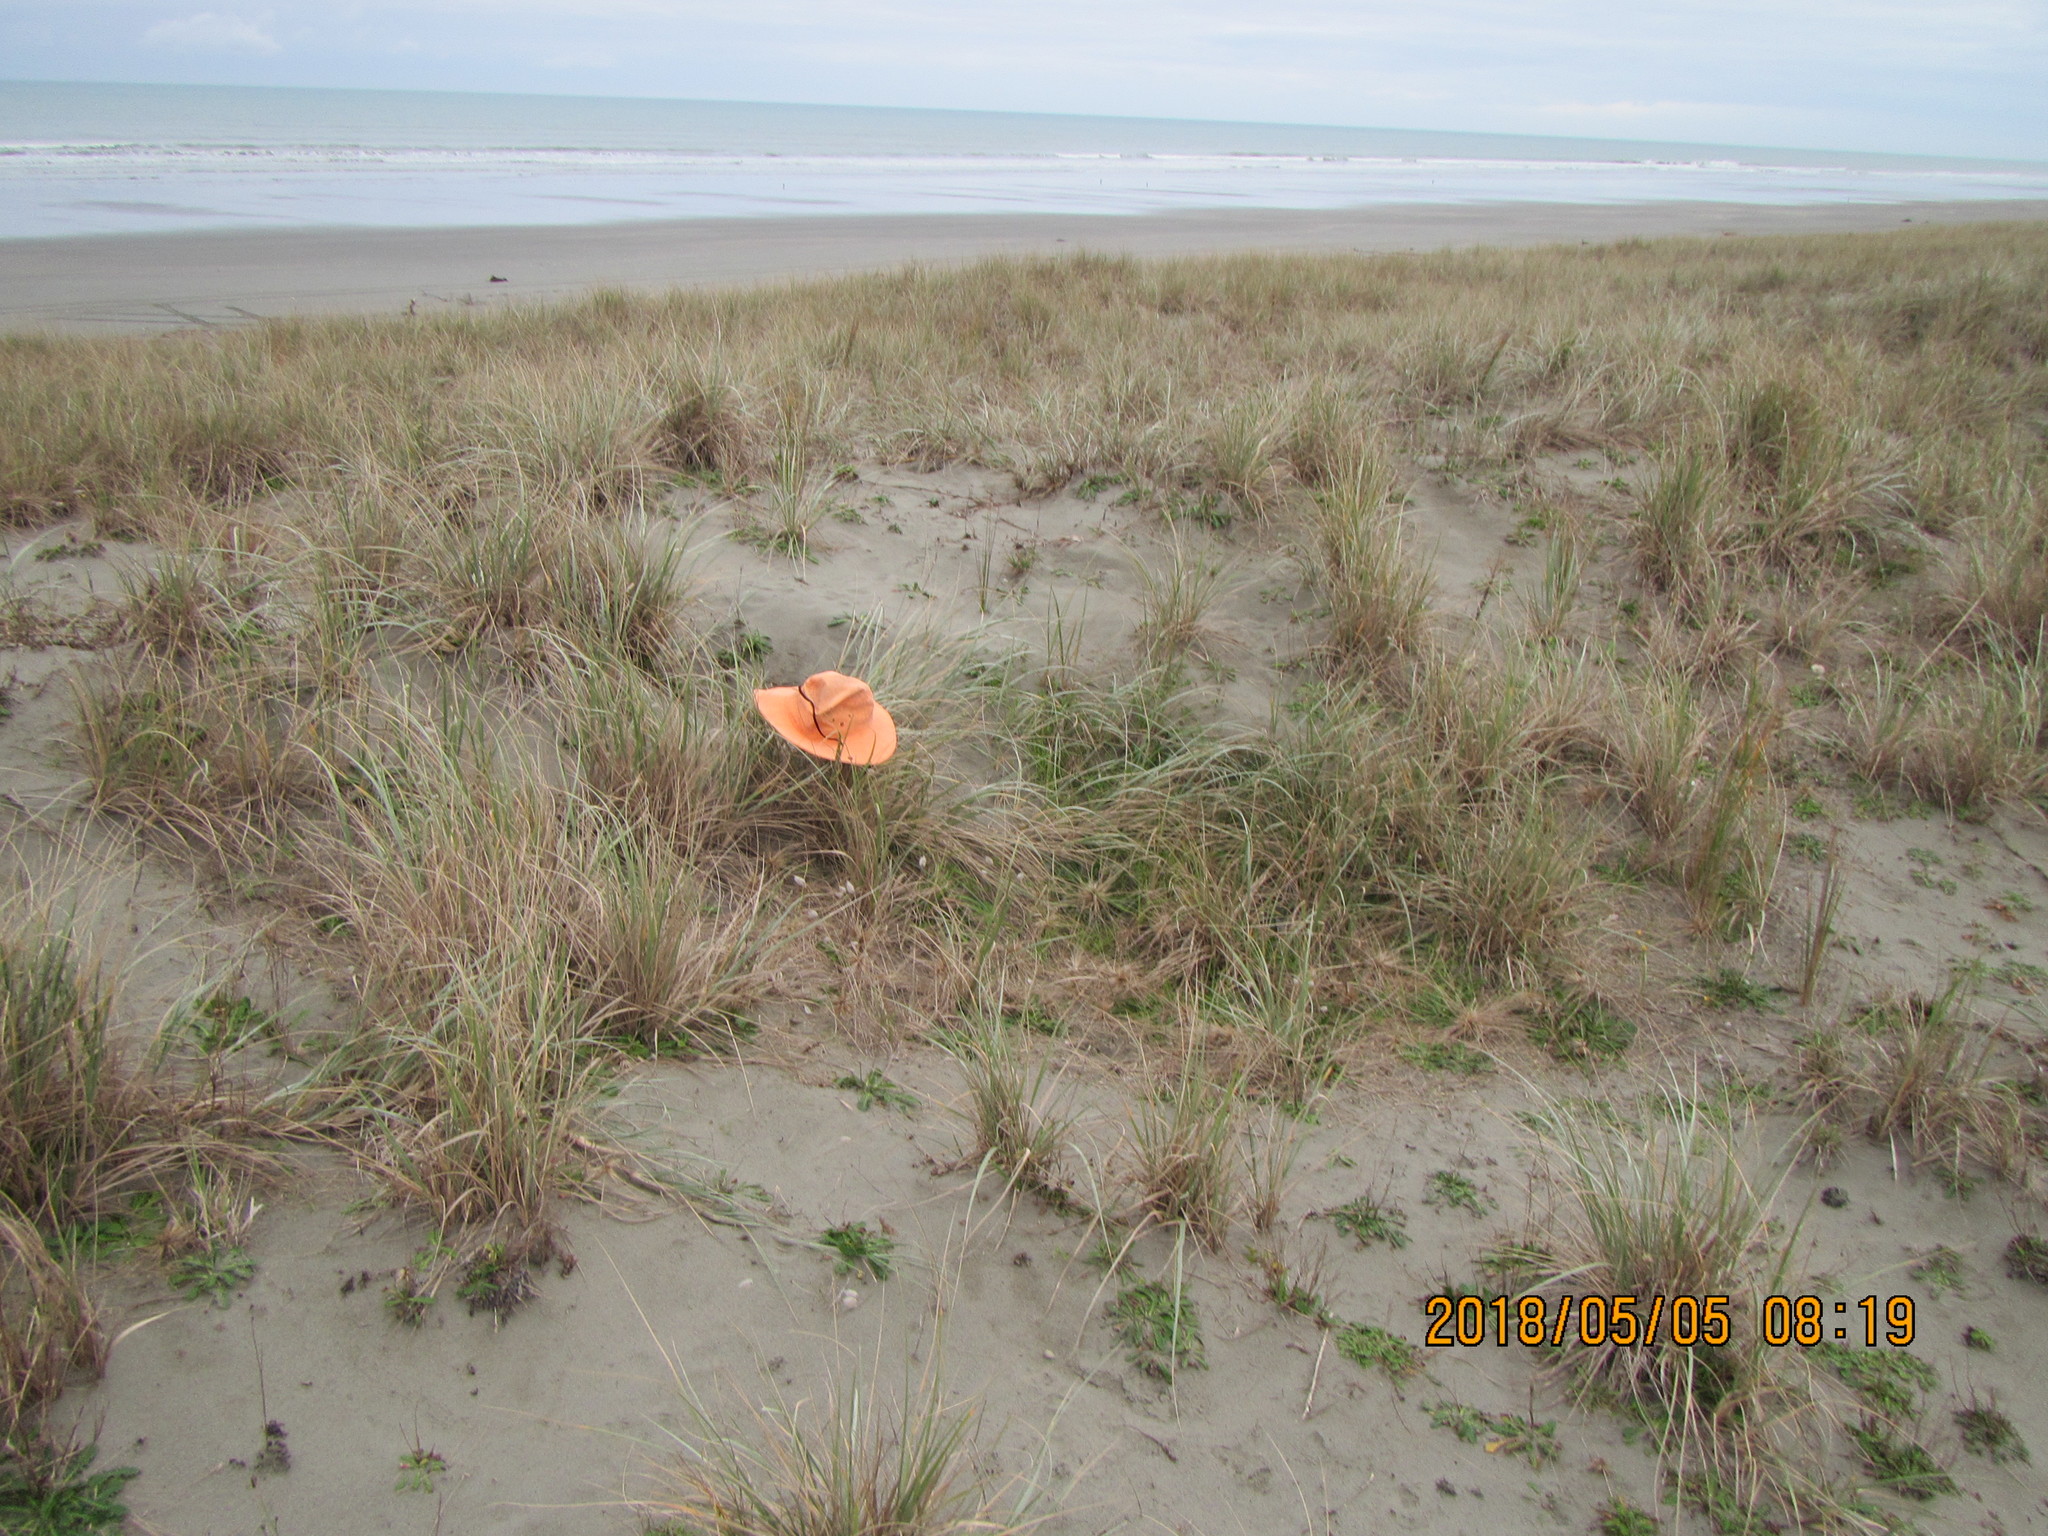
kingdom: Animalia
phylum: Arthropoda
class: Arachnida
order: Araneae
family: Theridiidae
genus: Latrodectus
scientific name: Latrodectus katipo
